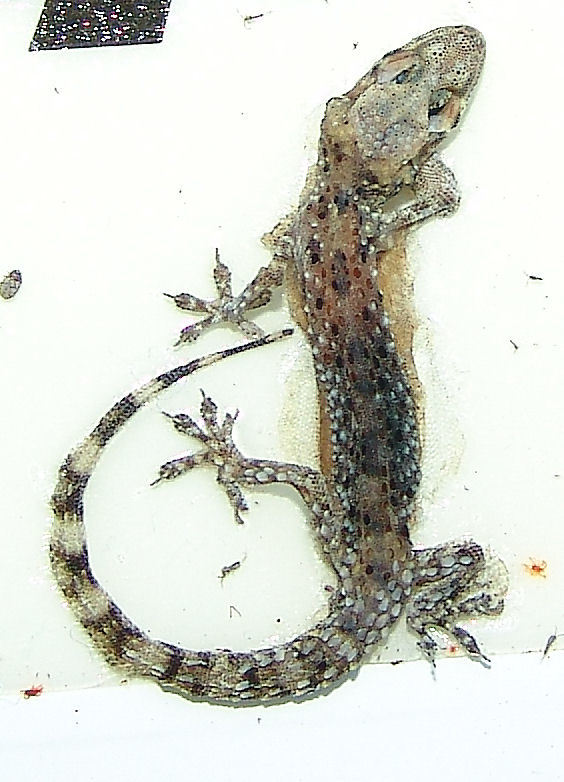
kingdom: Animalia
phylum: Chordata
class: Squamata
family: Gekkonidae
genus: Hemidactylus
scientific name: Hemidactylus turcicus
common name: Turkish gecko
